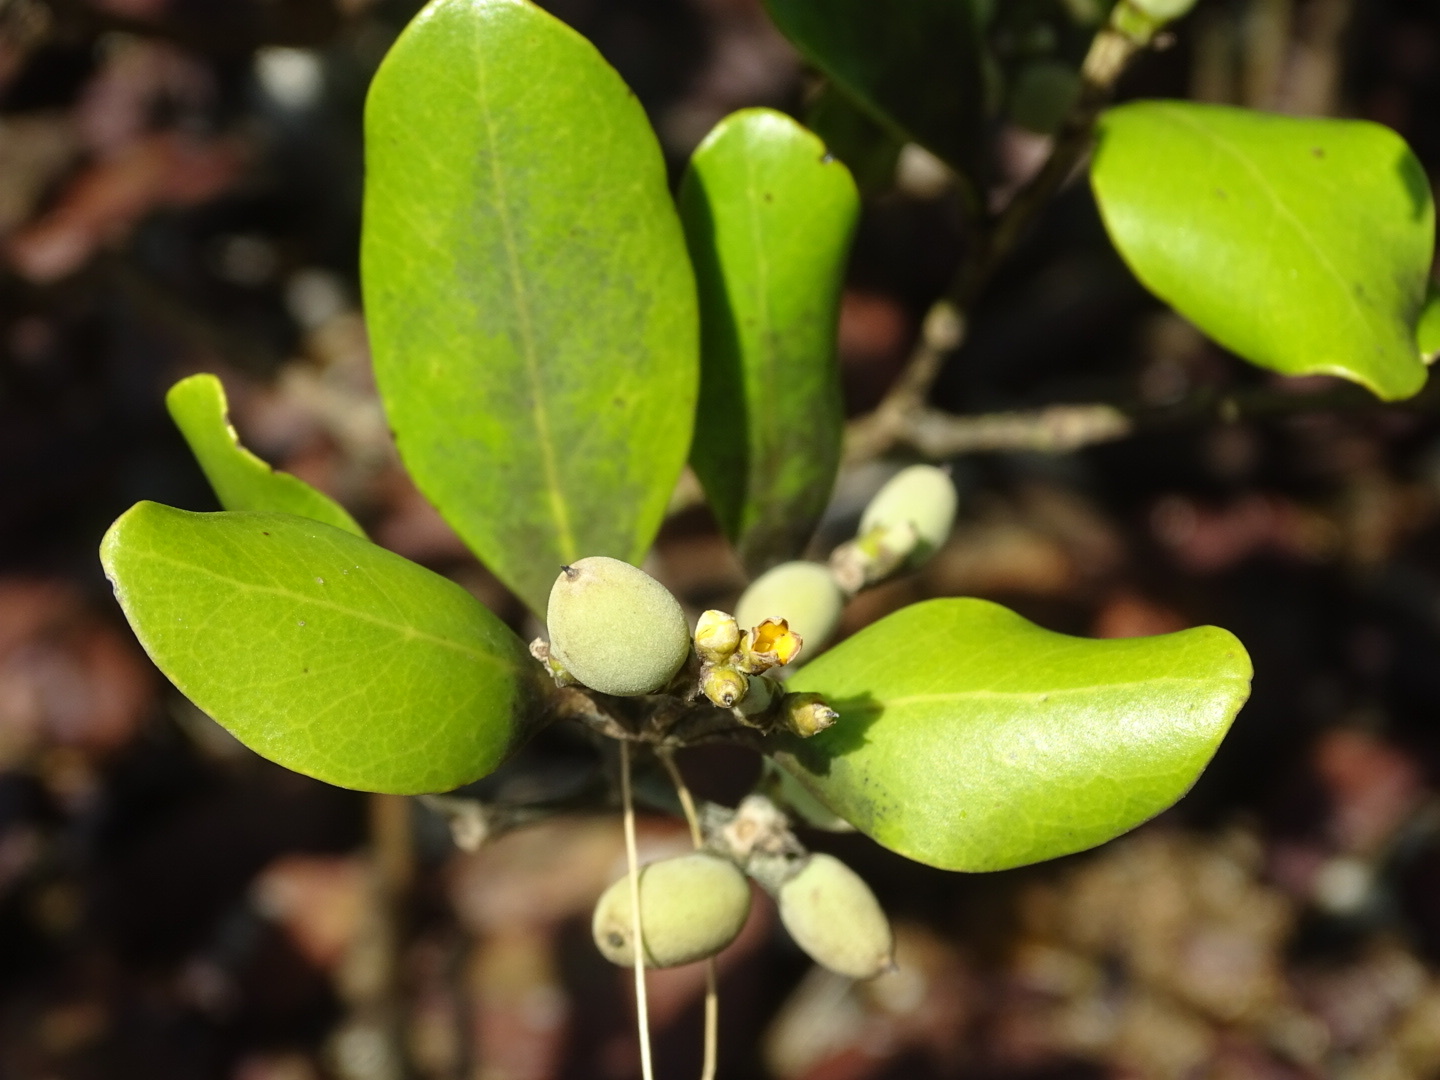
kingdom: Plantae
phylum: Tracheophyta
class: Magnoliopsida
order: Lamiales
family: Acanthaceae
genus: Avicennia
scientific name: Avicennia marina
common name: Gray mangrove
